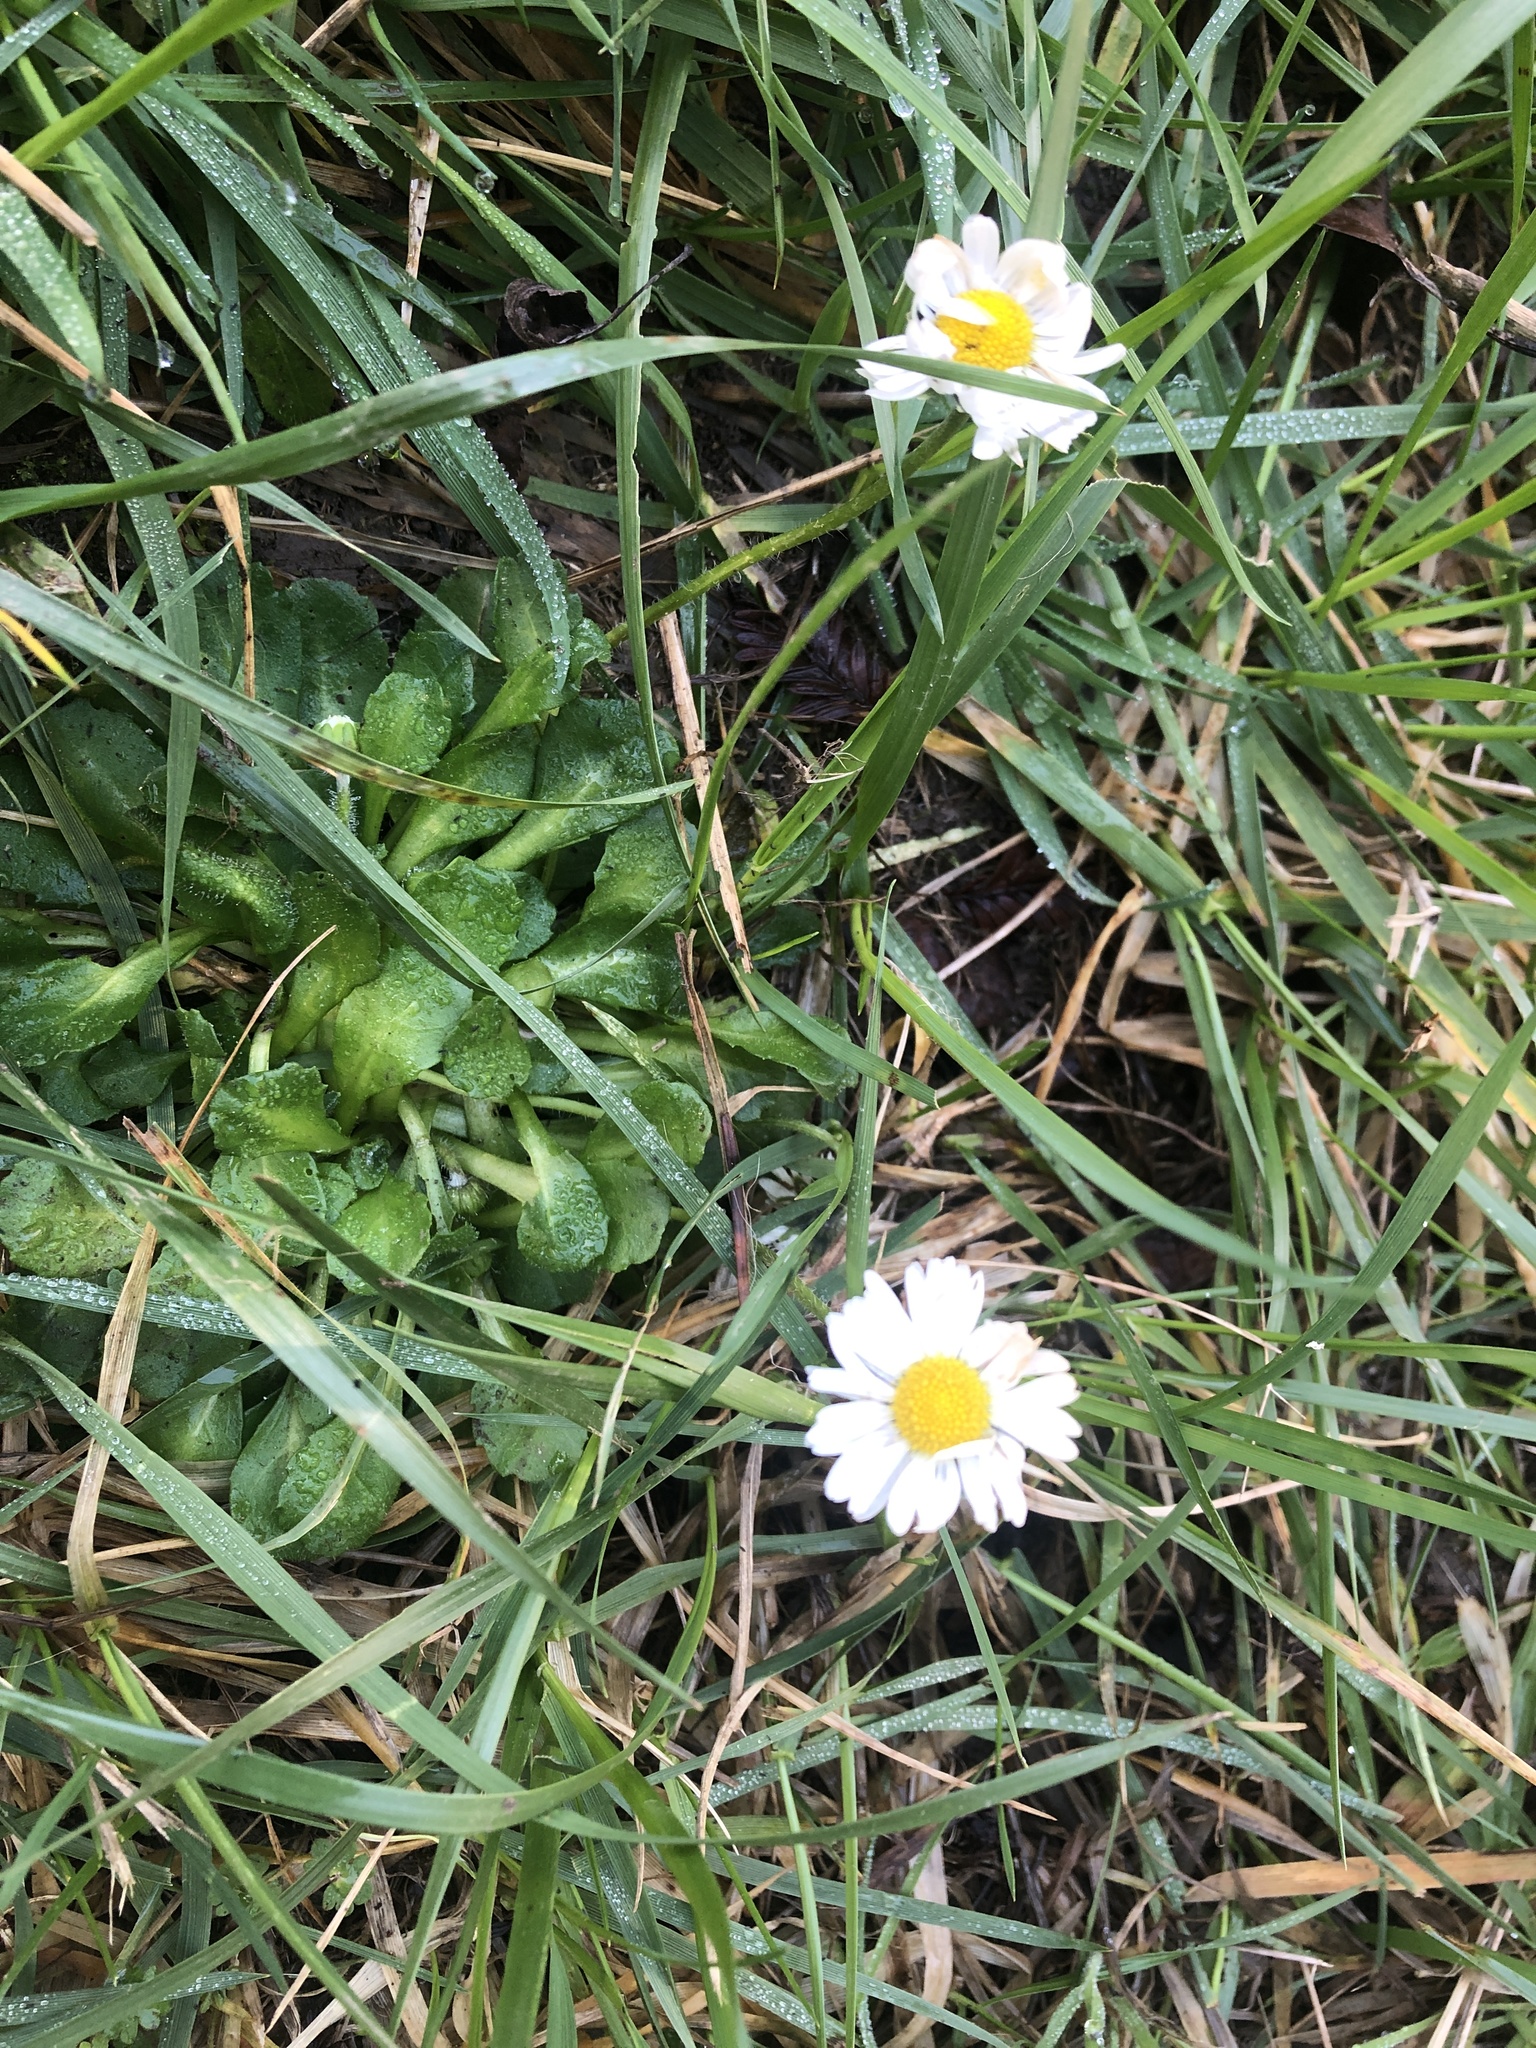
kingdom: Plantae
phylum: Tracheophyta
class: Magnoliopsida
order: Asterales
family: Asteraceae
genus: Bellis
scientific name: Bellis perennis
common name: Lawndaisy
